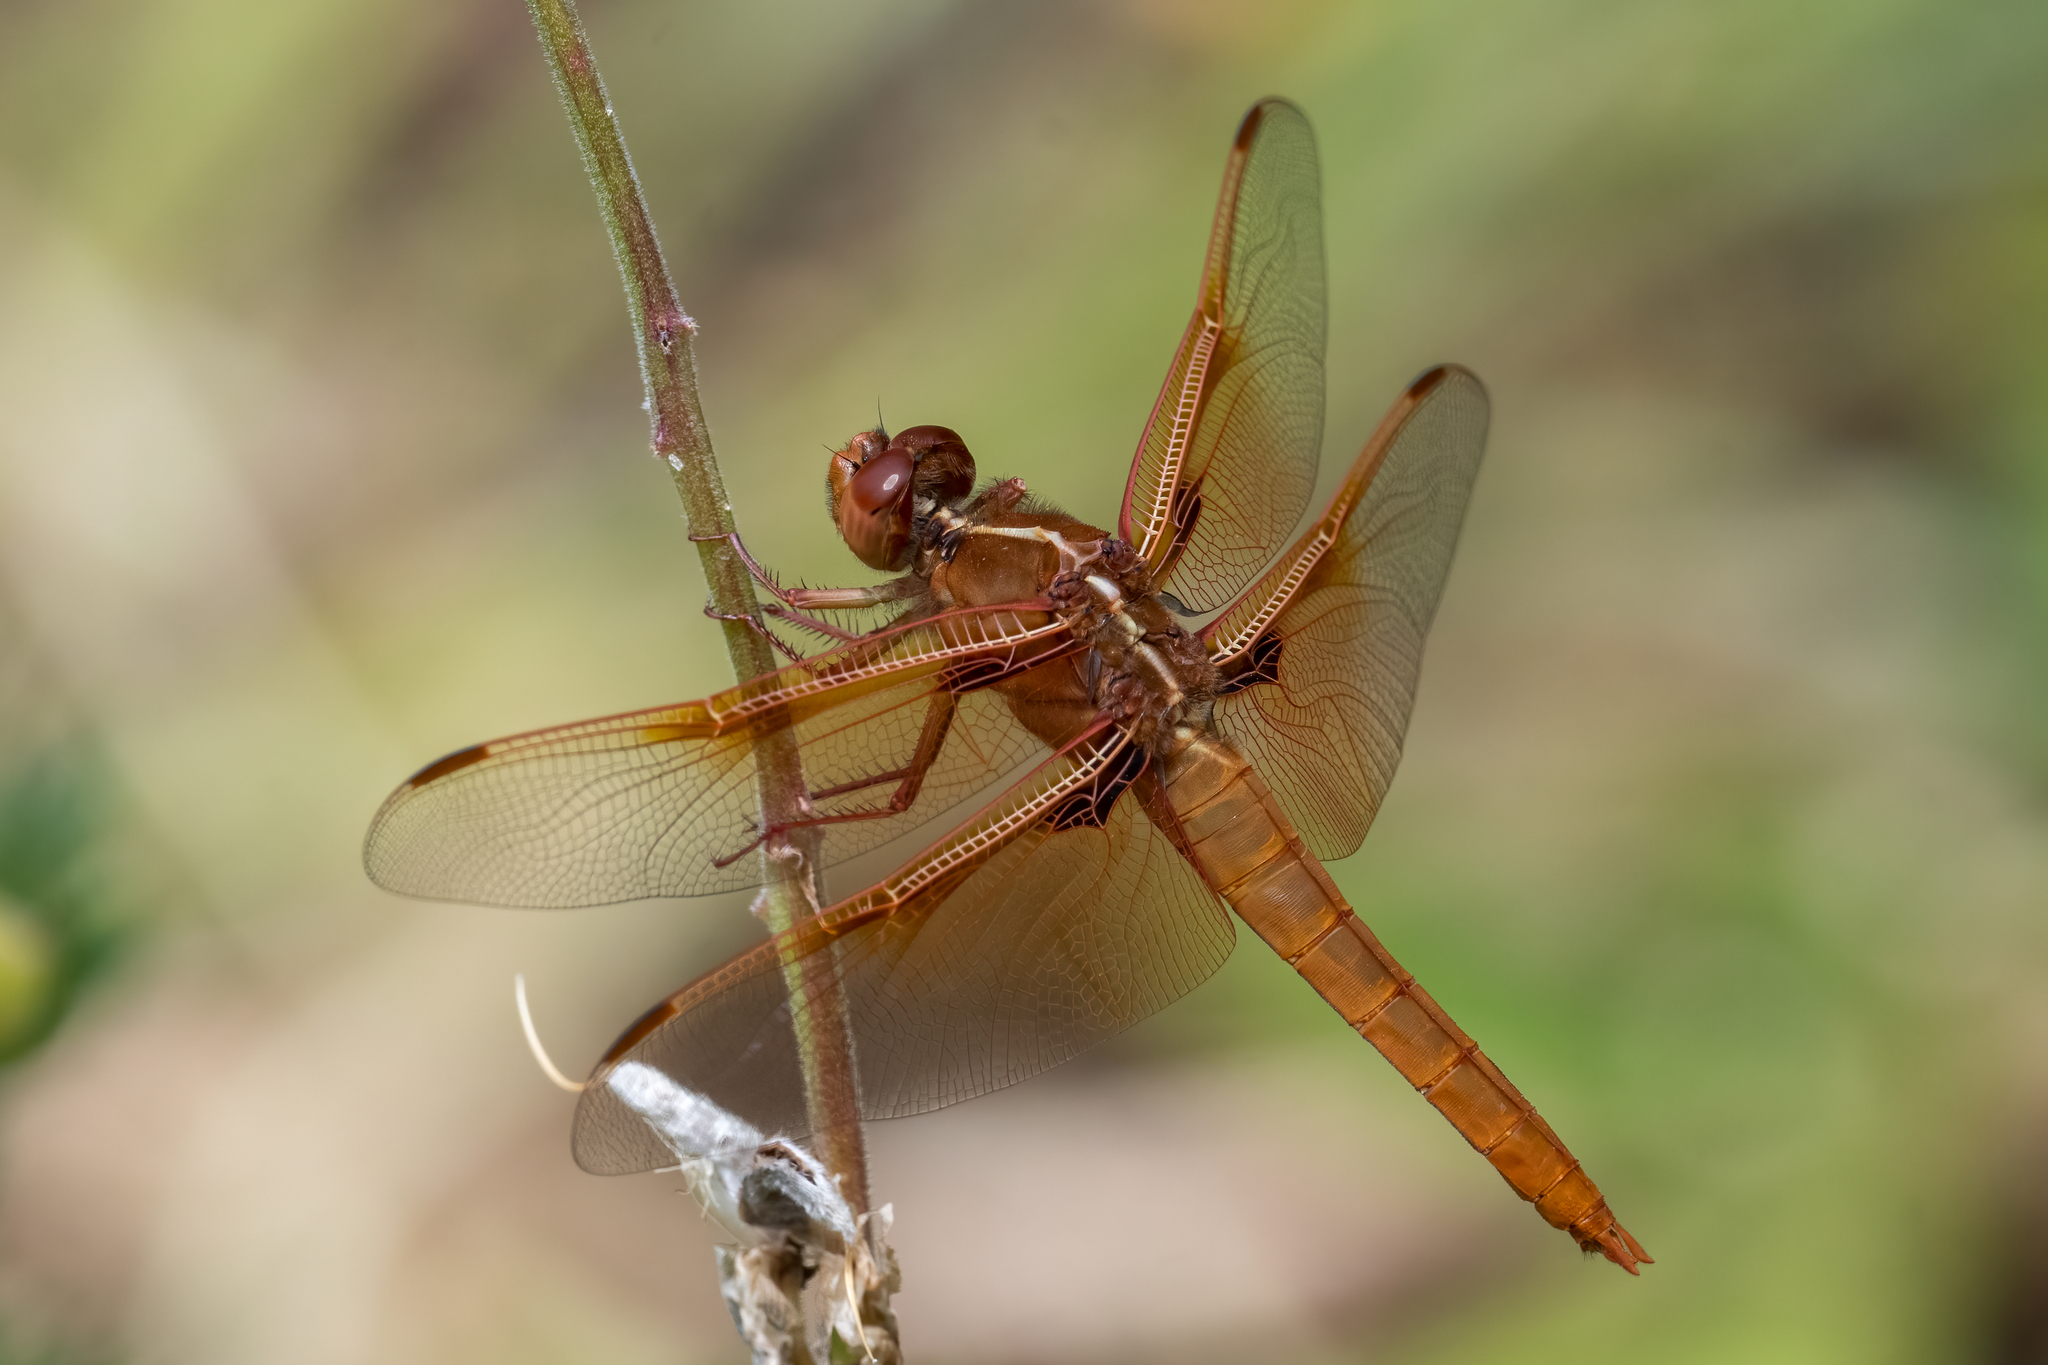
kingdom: Animalia
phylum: Arthropoda
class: Insecta
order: Odonata
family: Libellulidae
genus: Libellula
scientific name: Libellula saturata
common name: Flame skimmer
